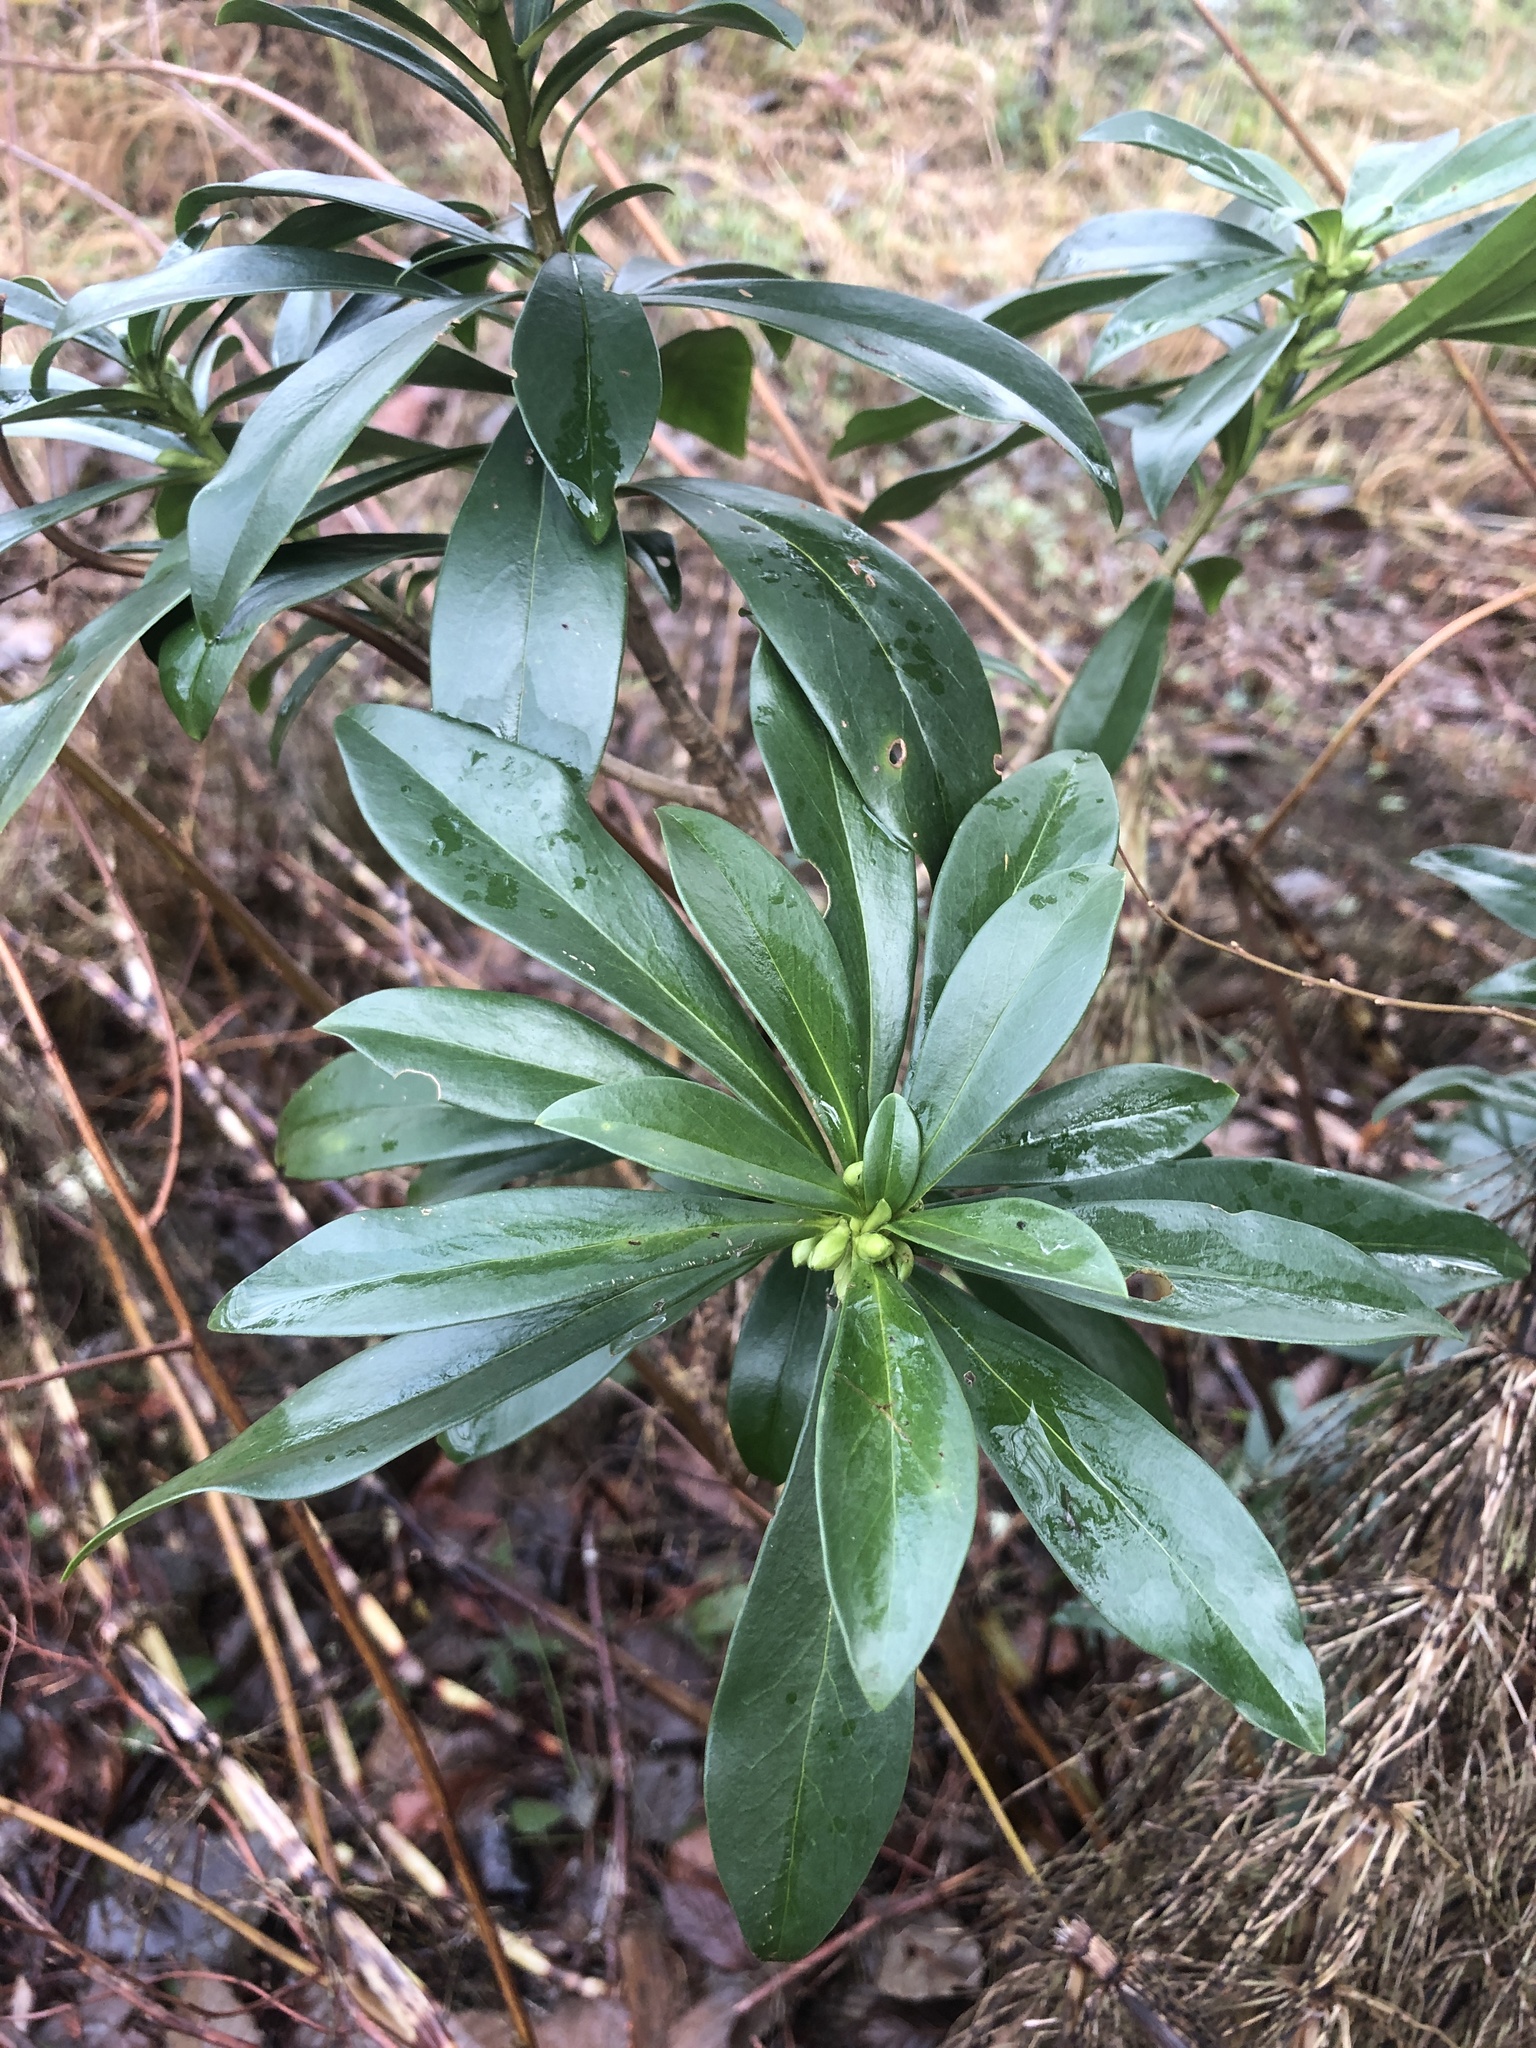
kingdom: Plantae
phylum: Tracheophyta
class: Magnoliopsida
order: Malvales
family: Thymelaeaceae
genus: Daphne
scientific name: Daphne laureola
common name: Spurge-laurel
